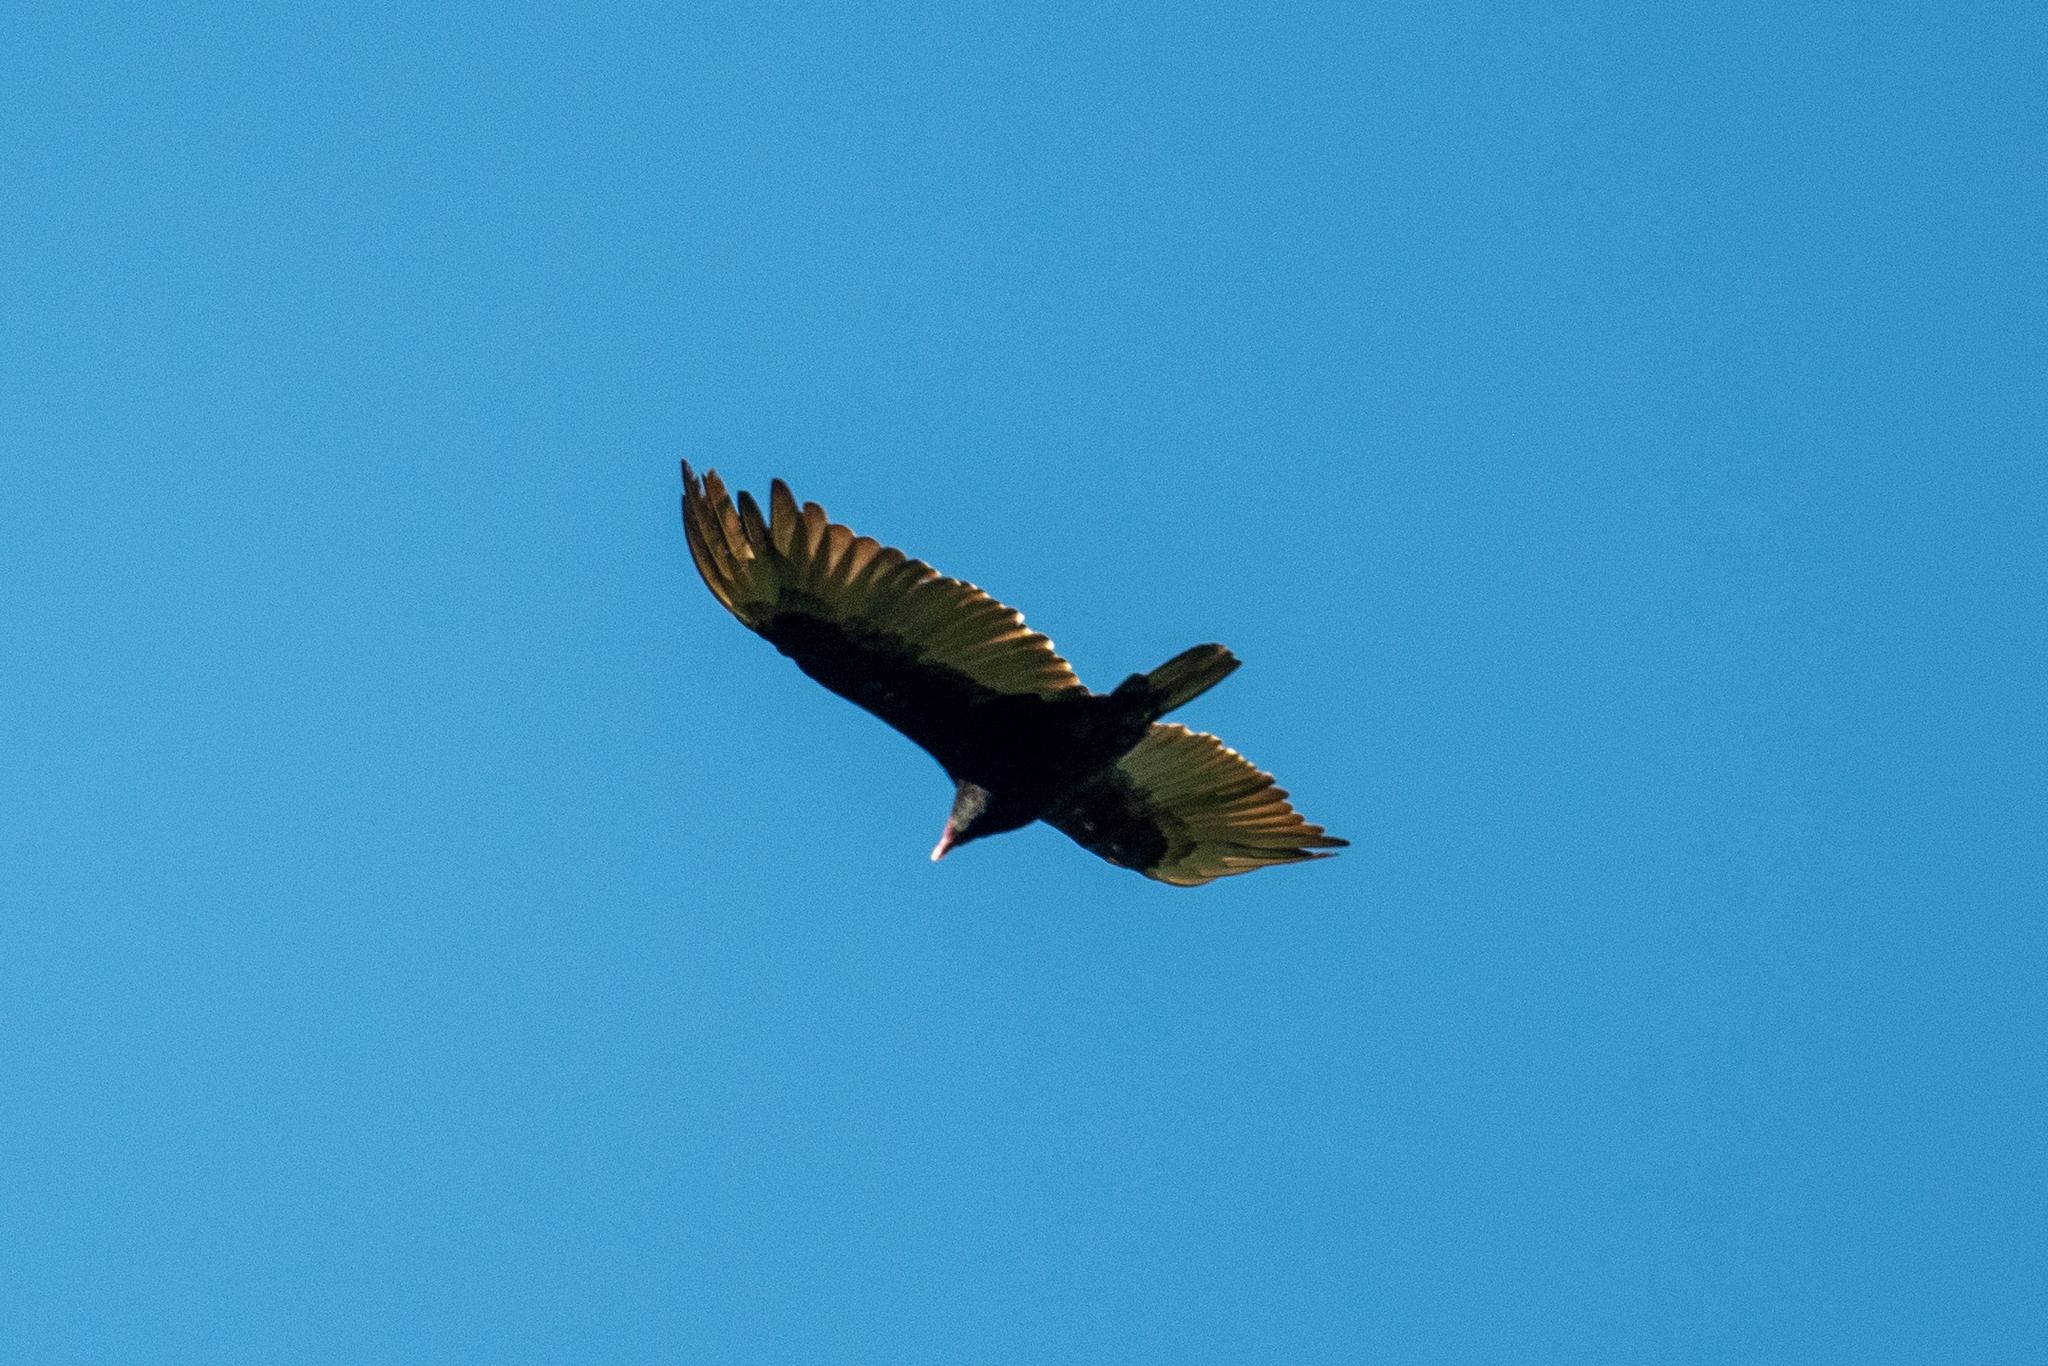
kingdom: Animalia
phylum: Chordata
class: Aves
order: Accipitriformes
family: Cathartidae
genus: Cathartes
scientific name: Cathartes aura
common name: Turkey vulture
